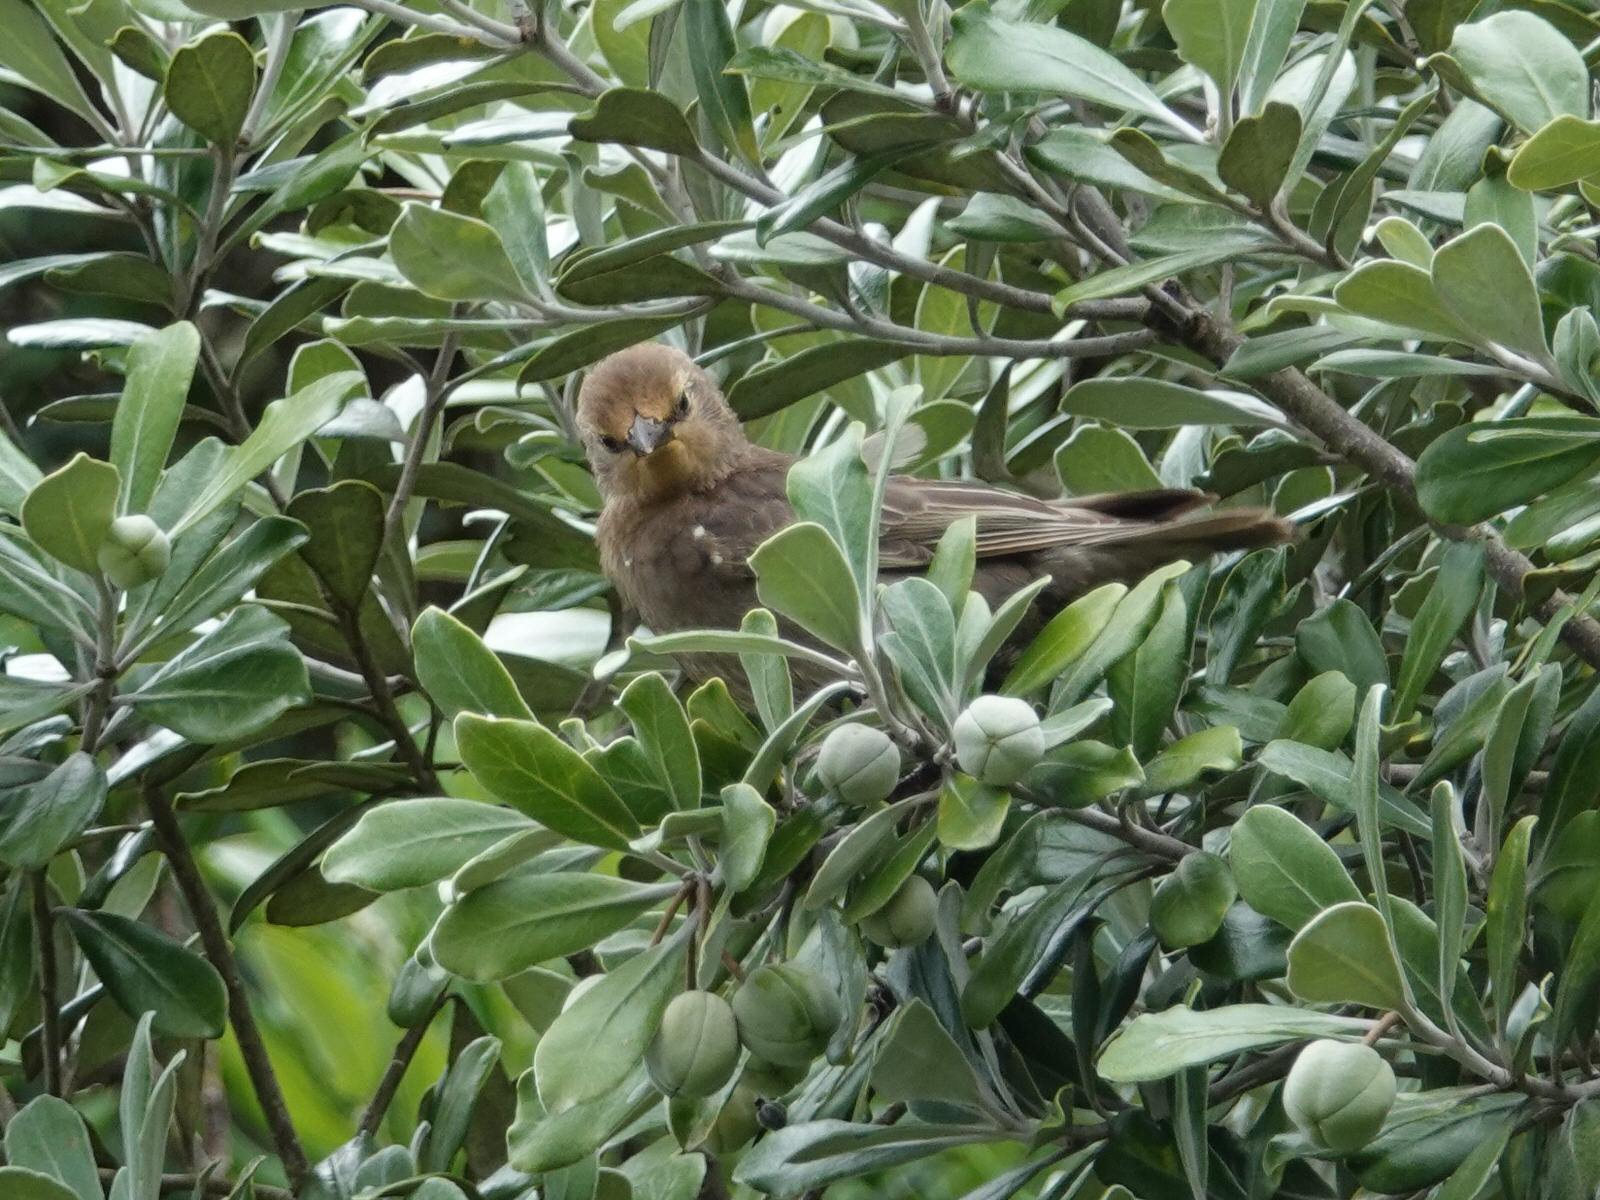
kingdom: Animalia
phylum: Chordata
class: Aves
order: Passeriformes
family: Sturnidae
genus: Sturnus
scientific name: Sturnus vulgaris
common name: Common starling
